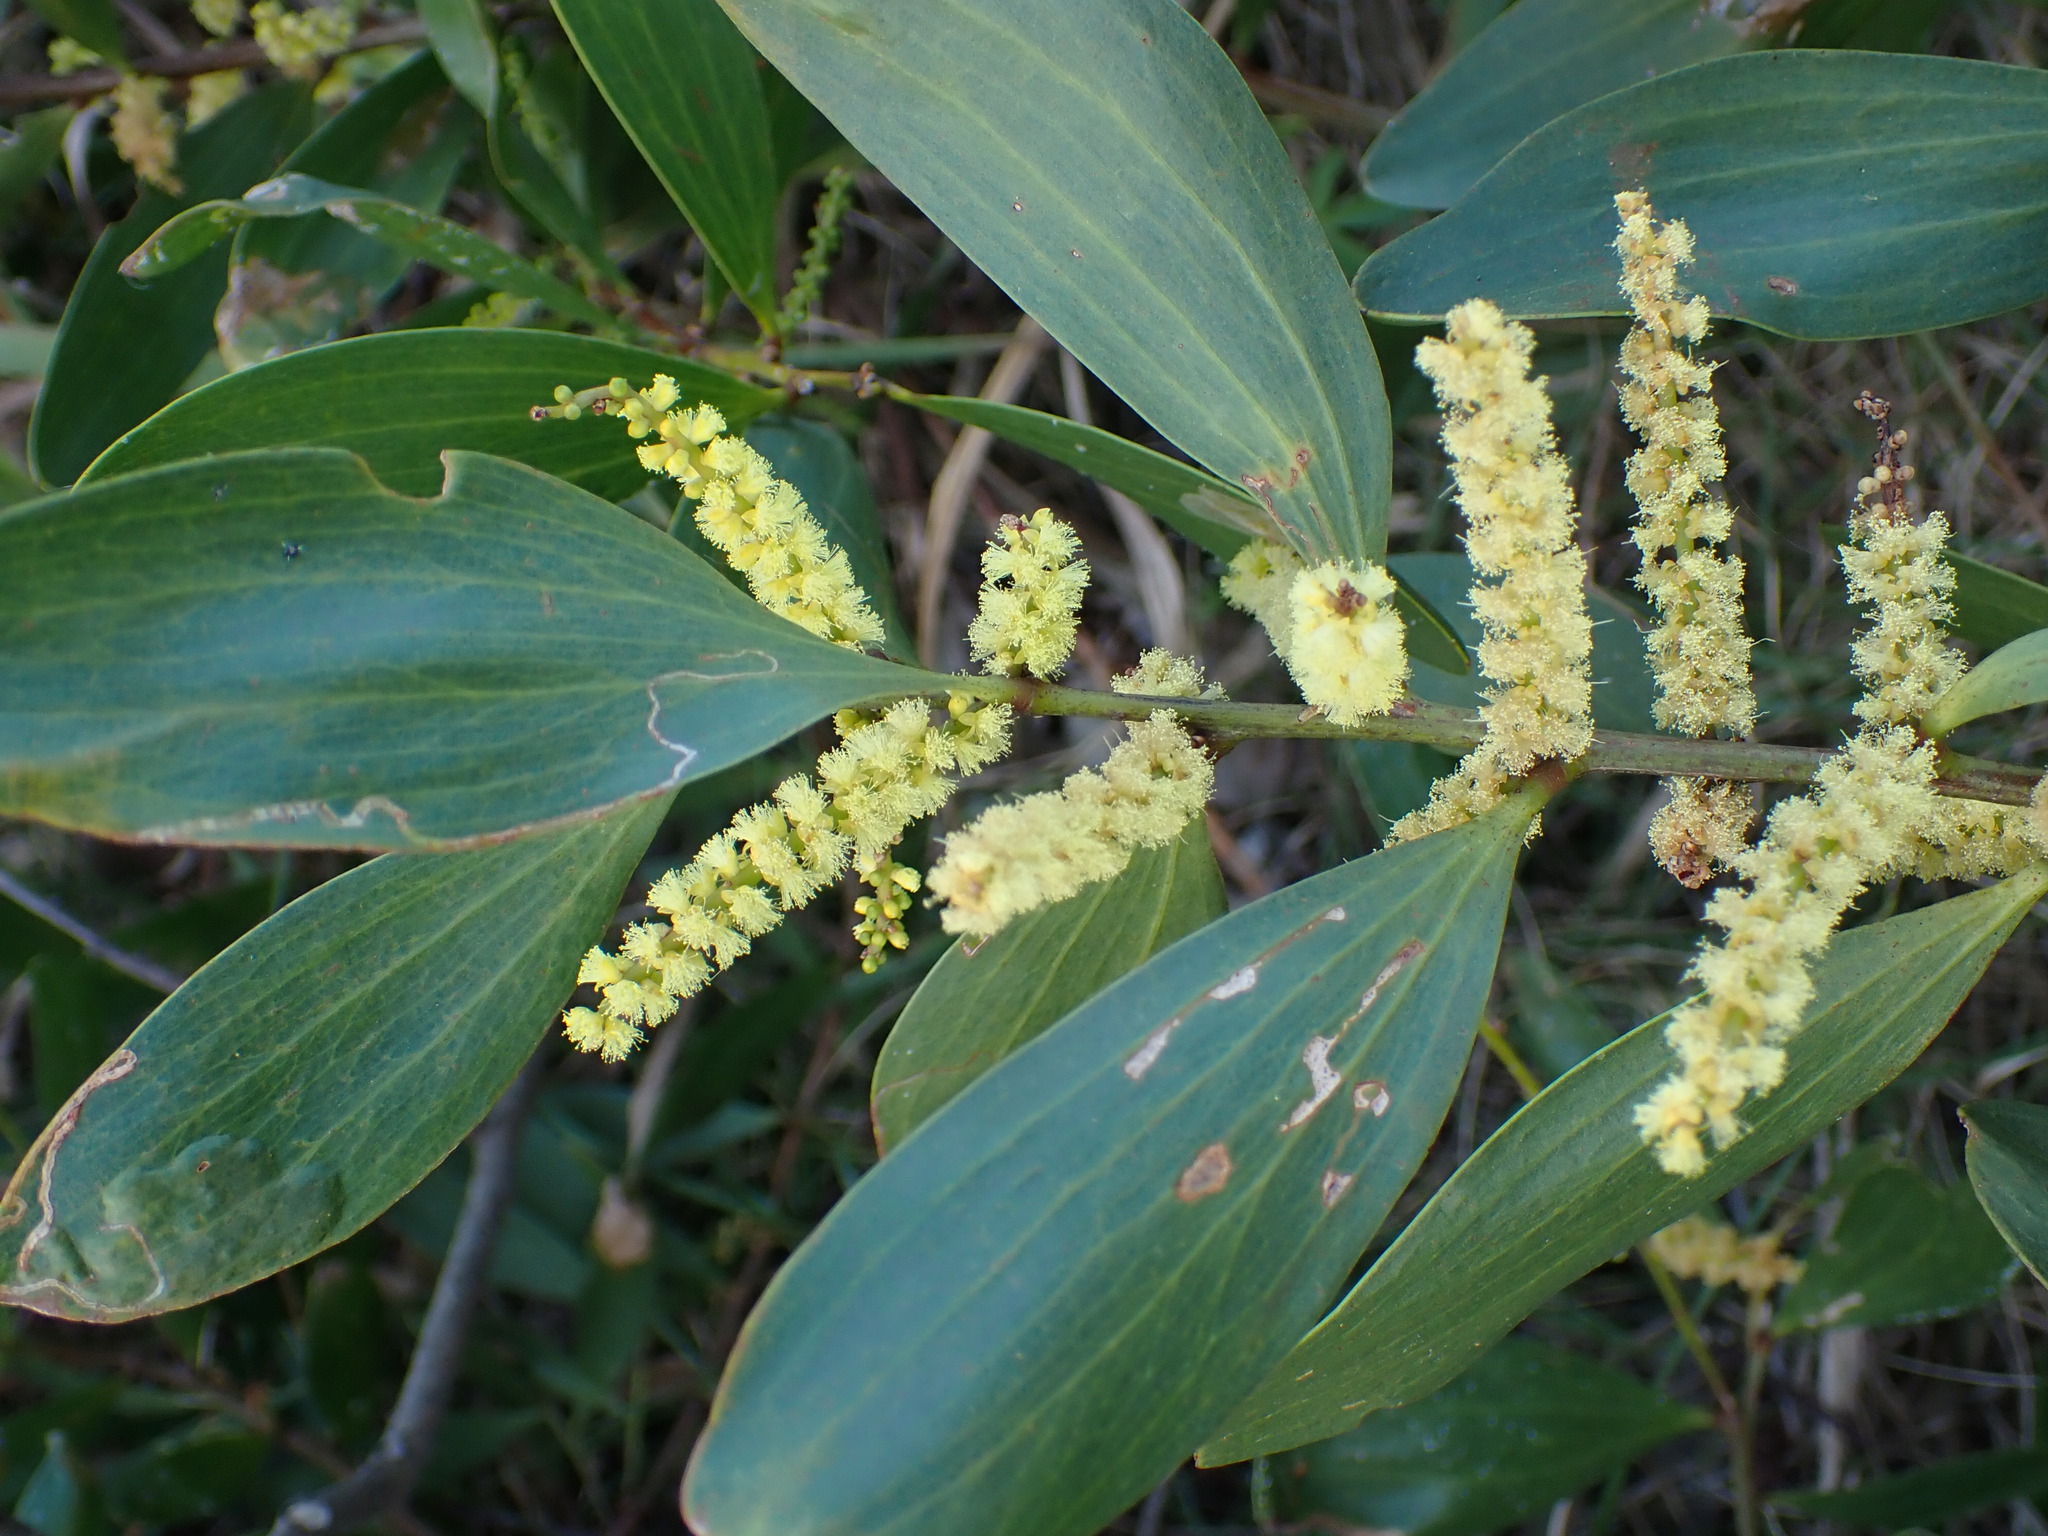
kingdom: Plantae
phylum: Tracheophyta
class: Magnoliopsida
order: Fabales
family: Fabaceae
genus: Acacia
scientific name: Acacia longifolia
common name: Sydney golden wattle
